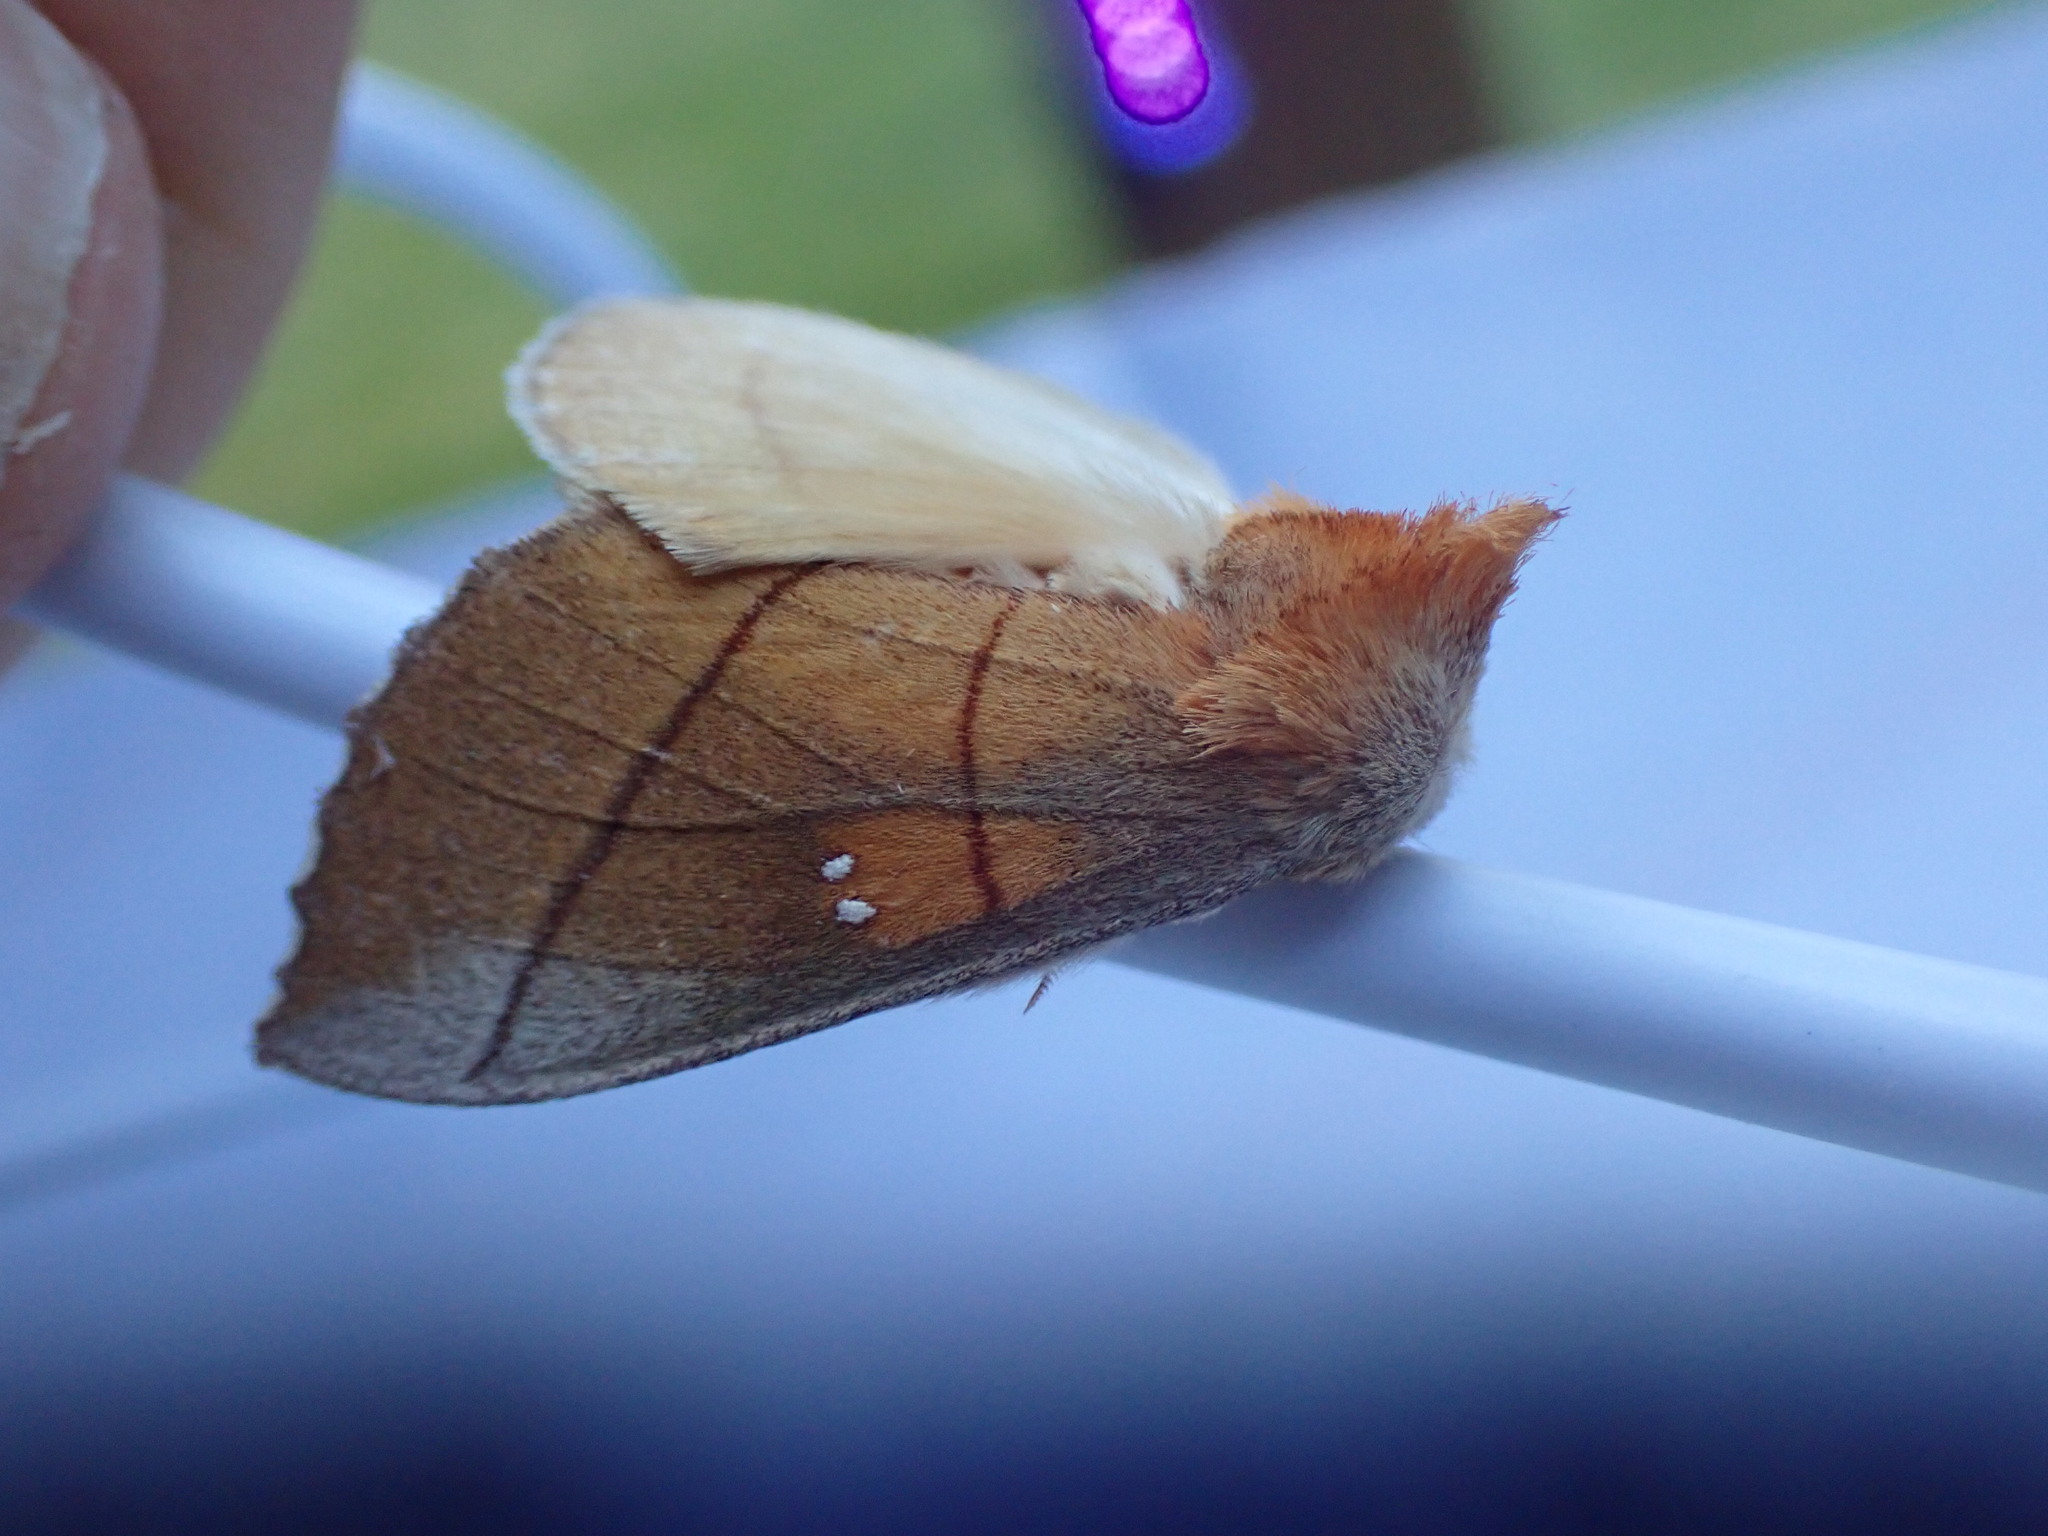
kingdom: Animalia
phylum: Arthropoda
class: Insecta
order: Lepidoptera
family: Notodontidae
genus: Nadata
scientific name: Nadata gibbosa
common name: White-dotted prominent
